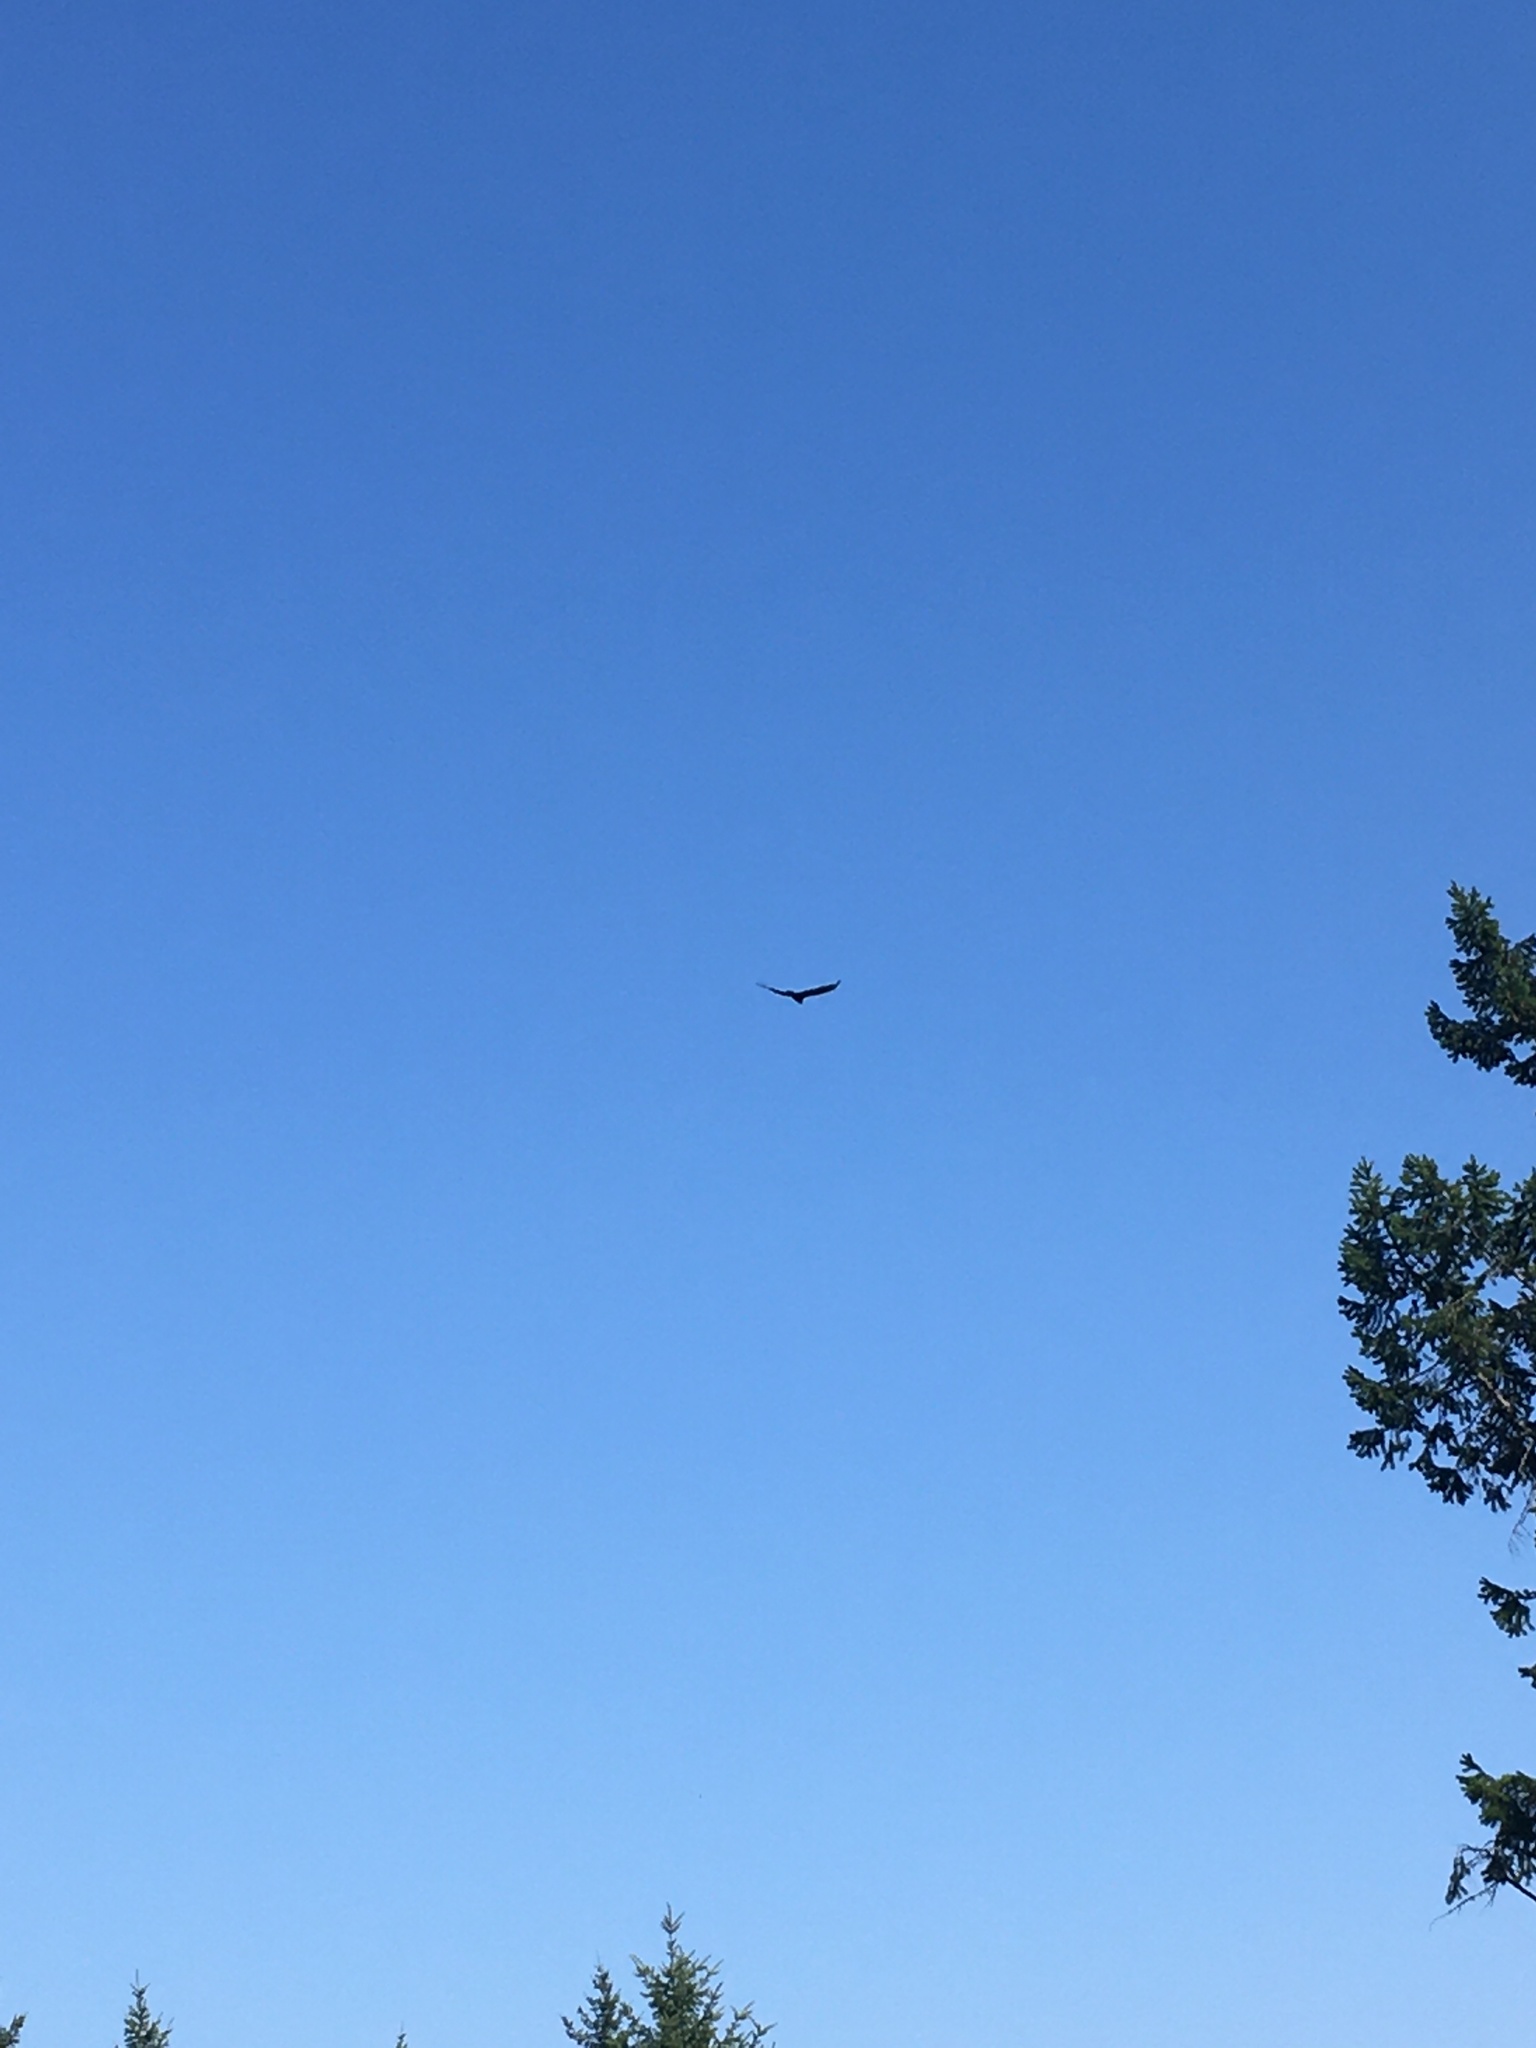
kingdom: Animalia
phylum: Chordata
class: Aves
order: Accipitriformes
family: Cathartidae
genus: Cathartes
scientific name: Cathartes aura
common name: Turkey vulture
